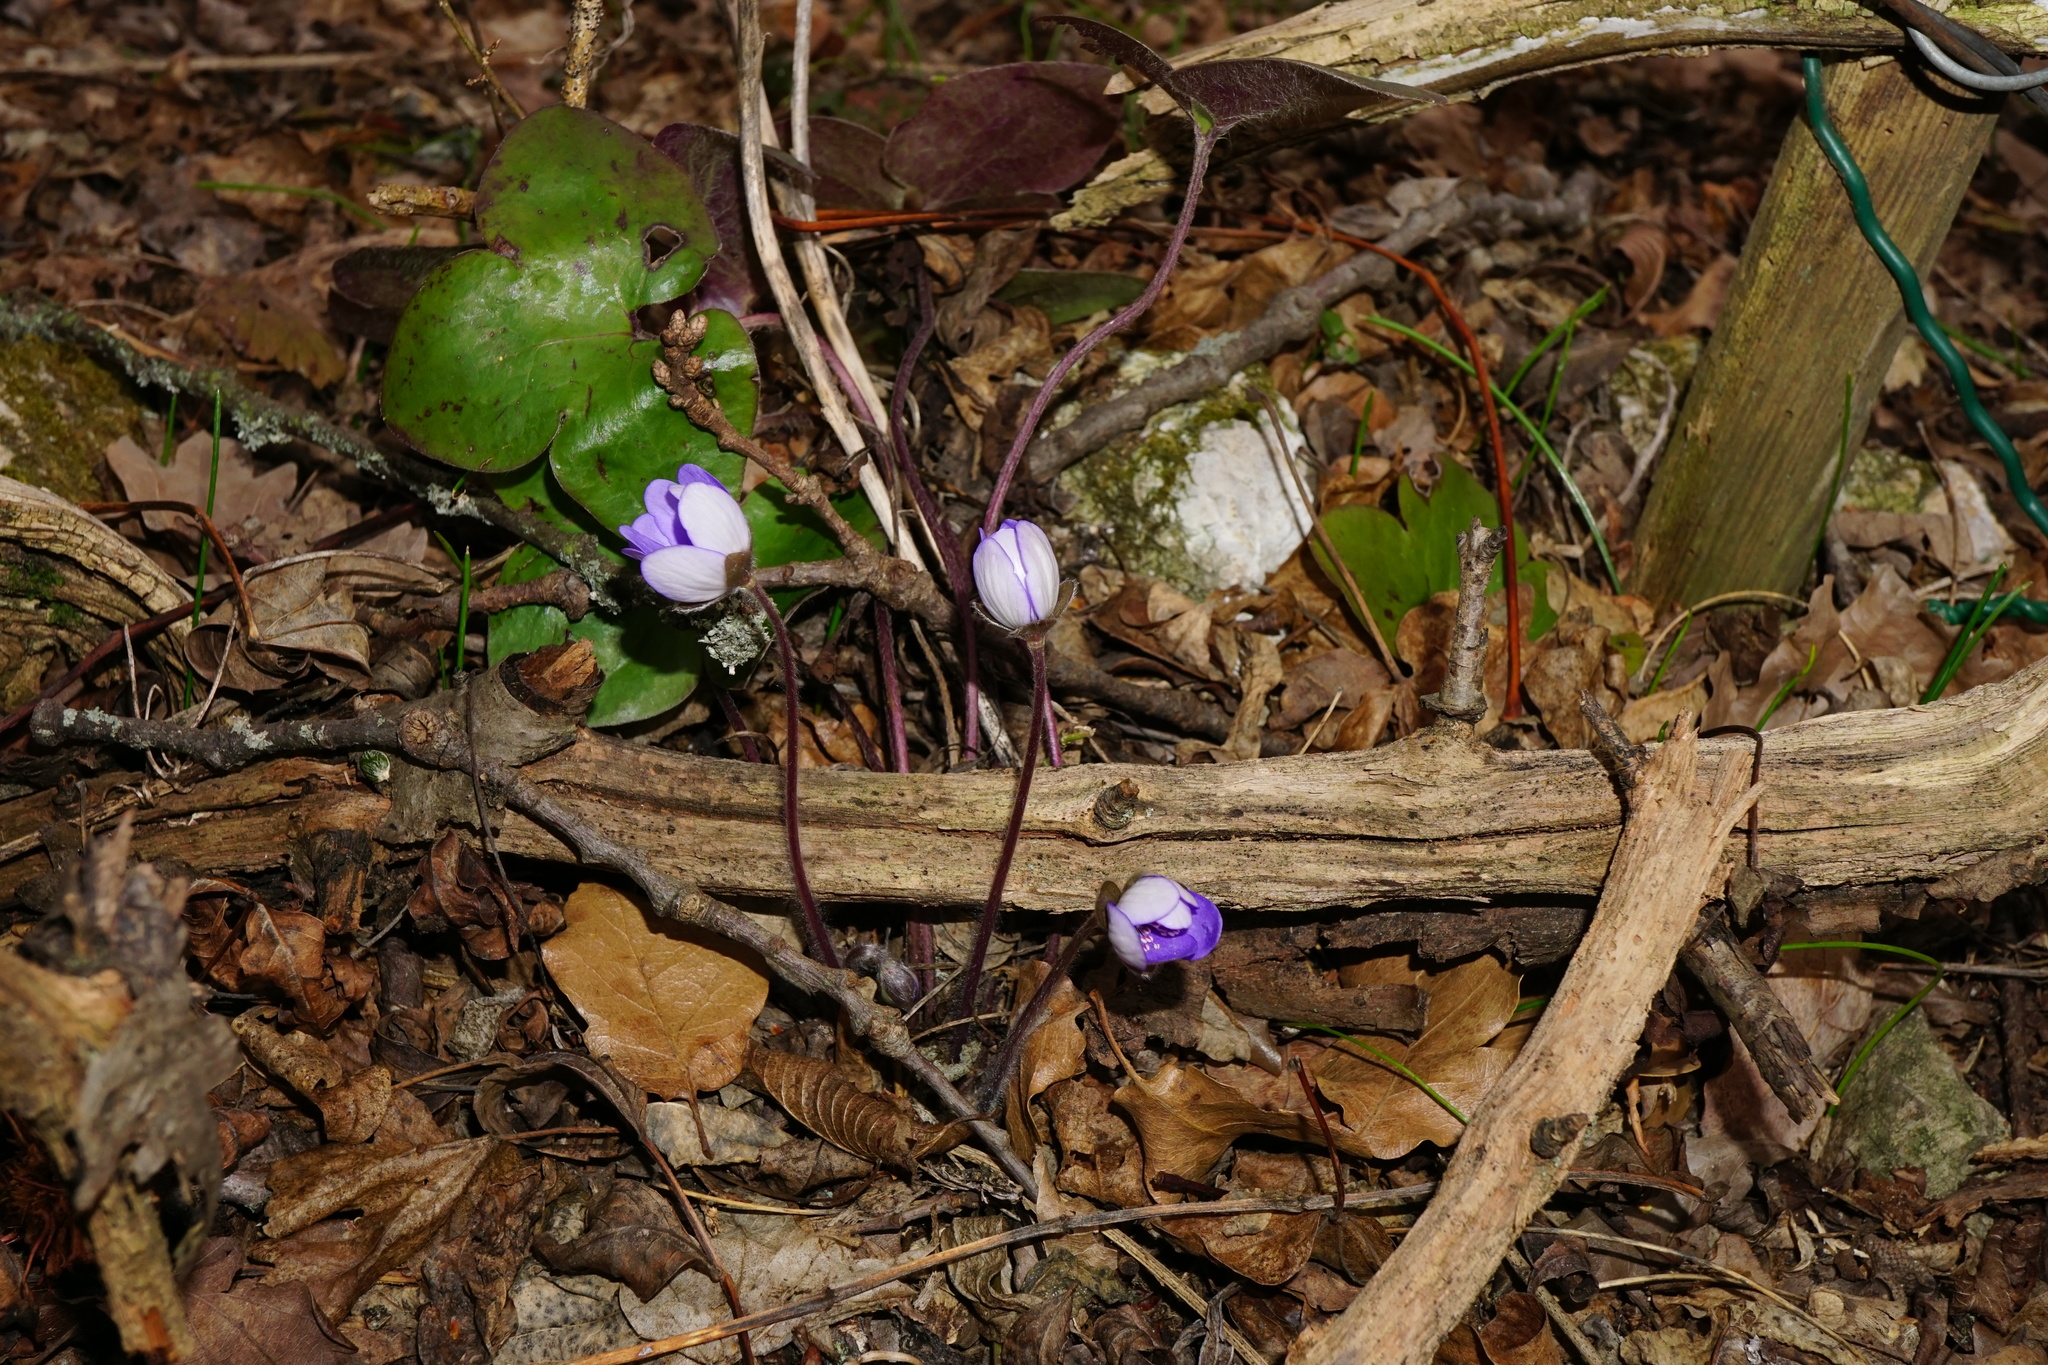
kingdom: Plantae
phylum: Tracheophyta
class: Magnoliopsida
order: Ranunculales
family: Ranunculaceae
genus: Hepatica
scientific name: Hepatica nobilis
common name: Liverleaf
